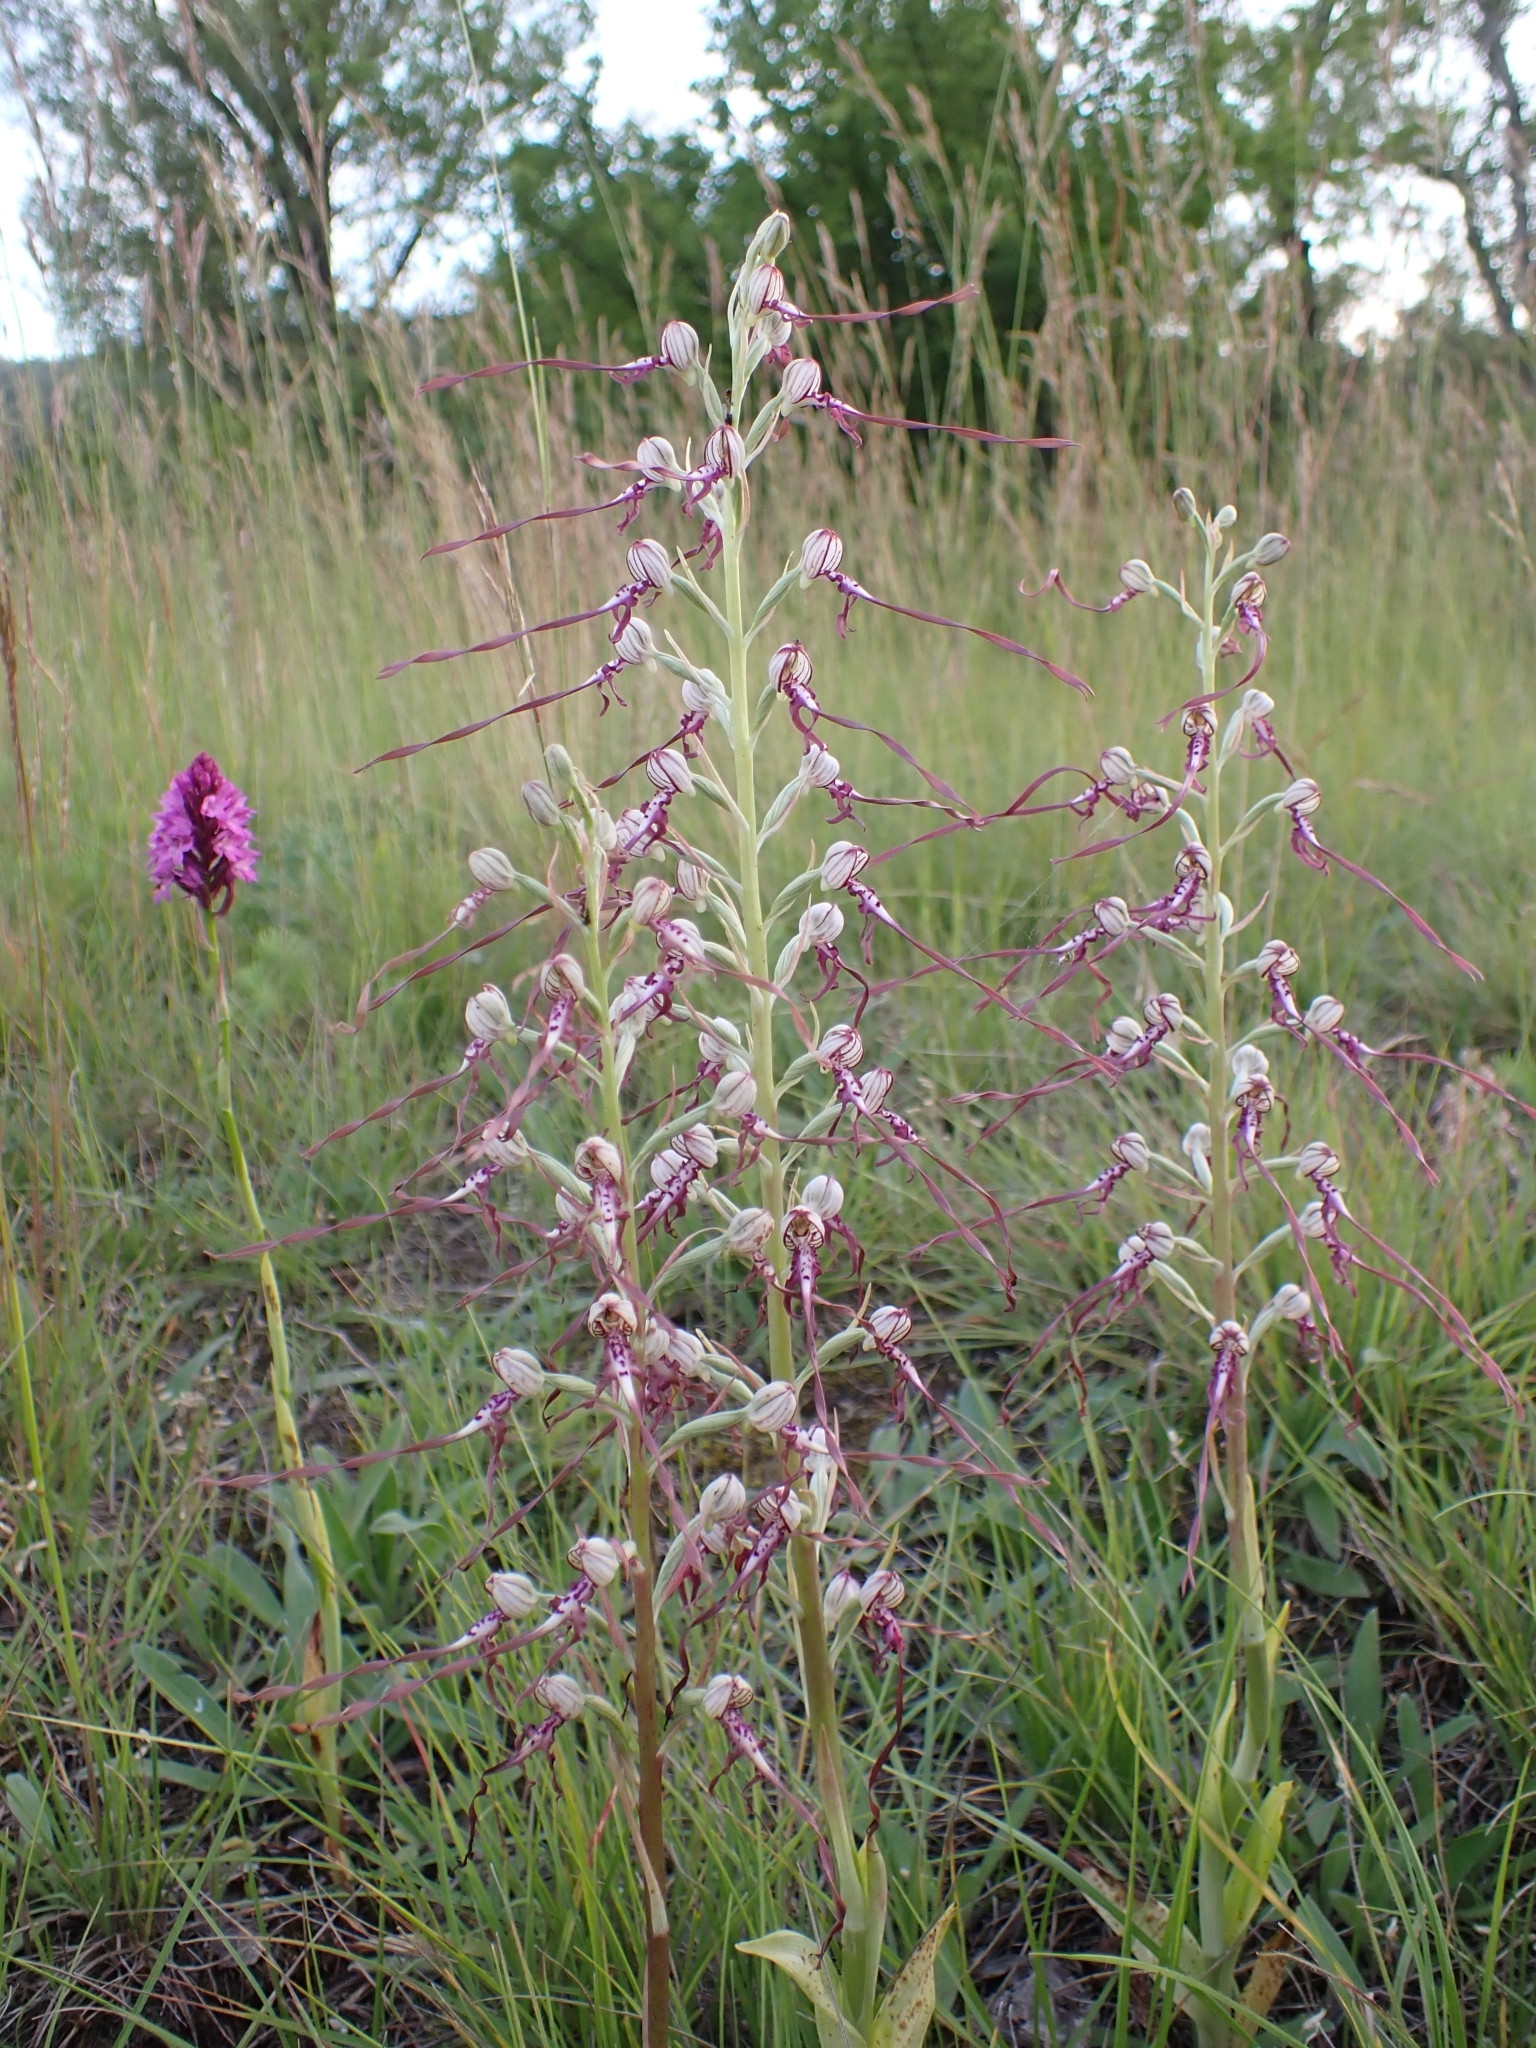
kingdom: Plantae
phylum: Tracheophyta
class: Liliopsida
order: Asparagales
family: Orchidaceae
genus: Himantoglossum
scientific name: Himantoglossum adriaticum
